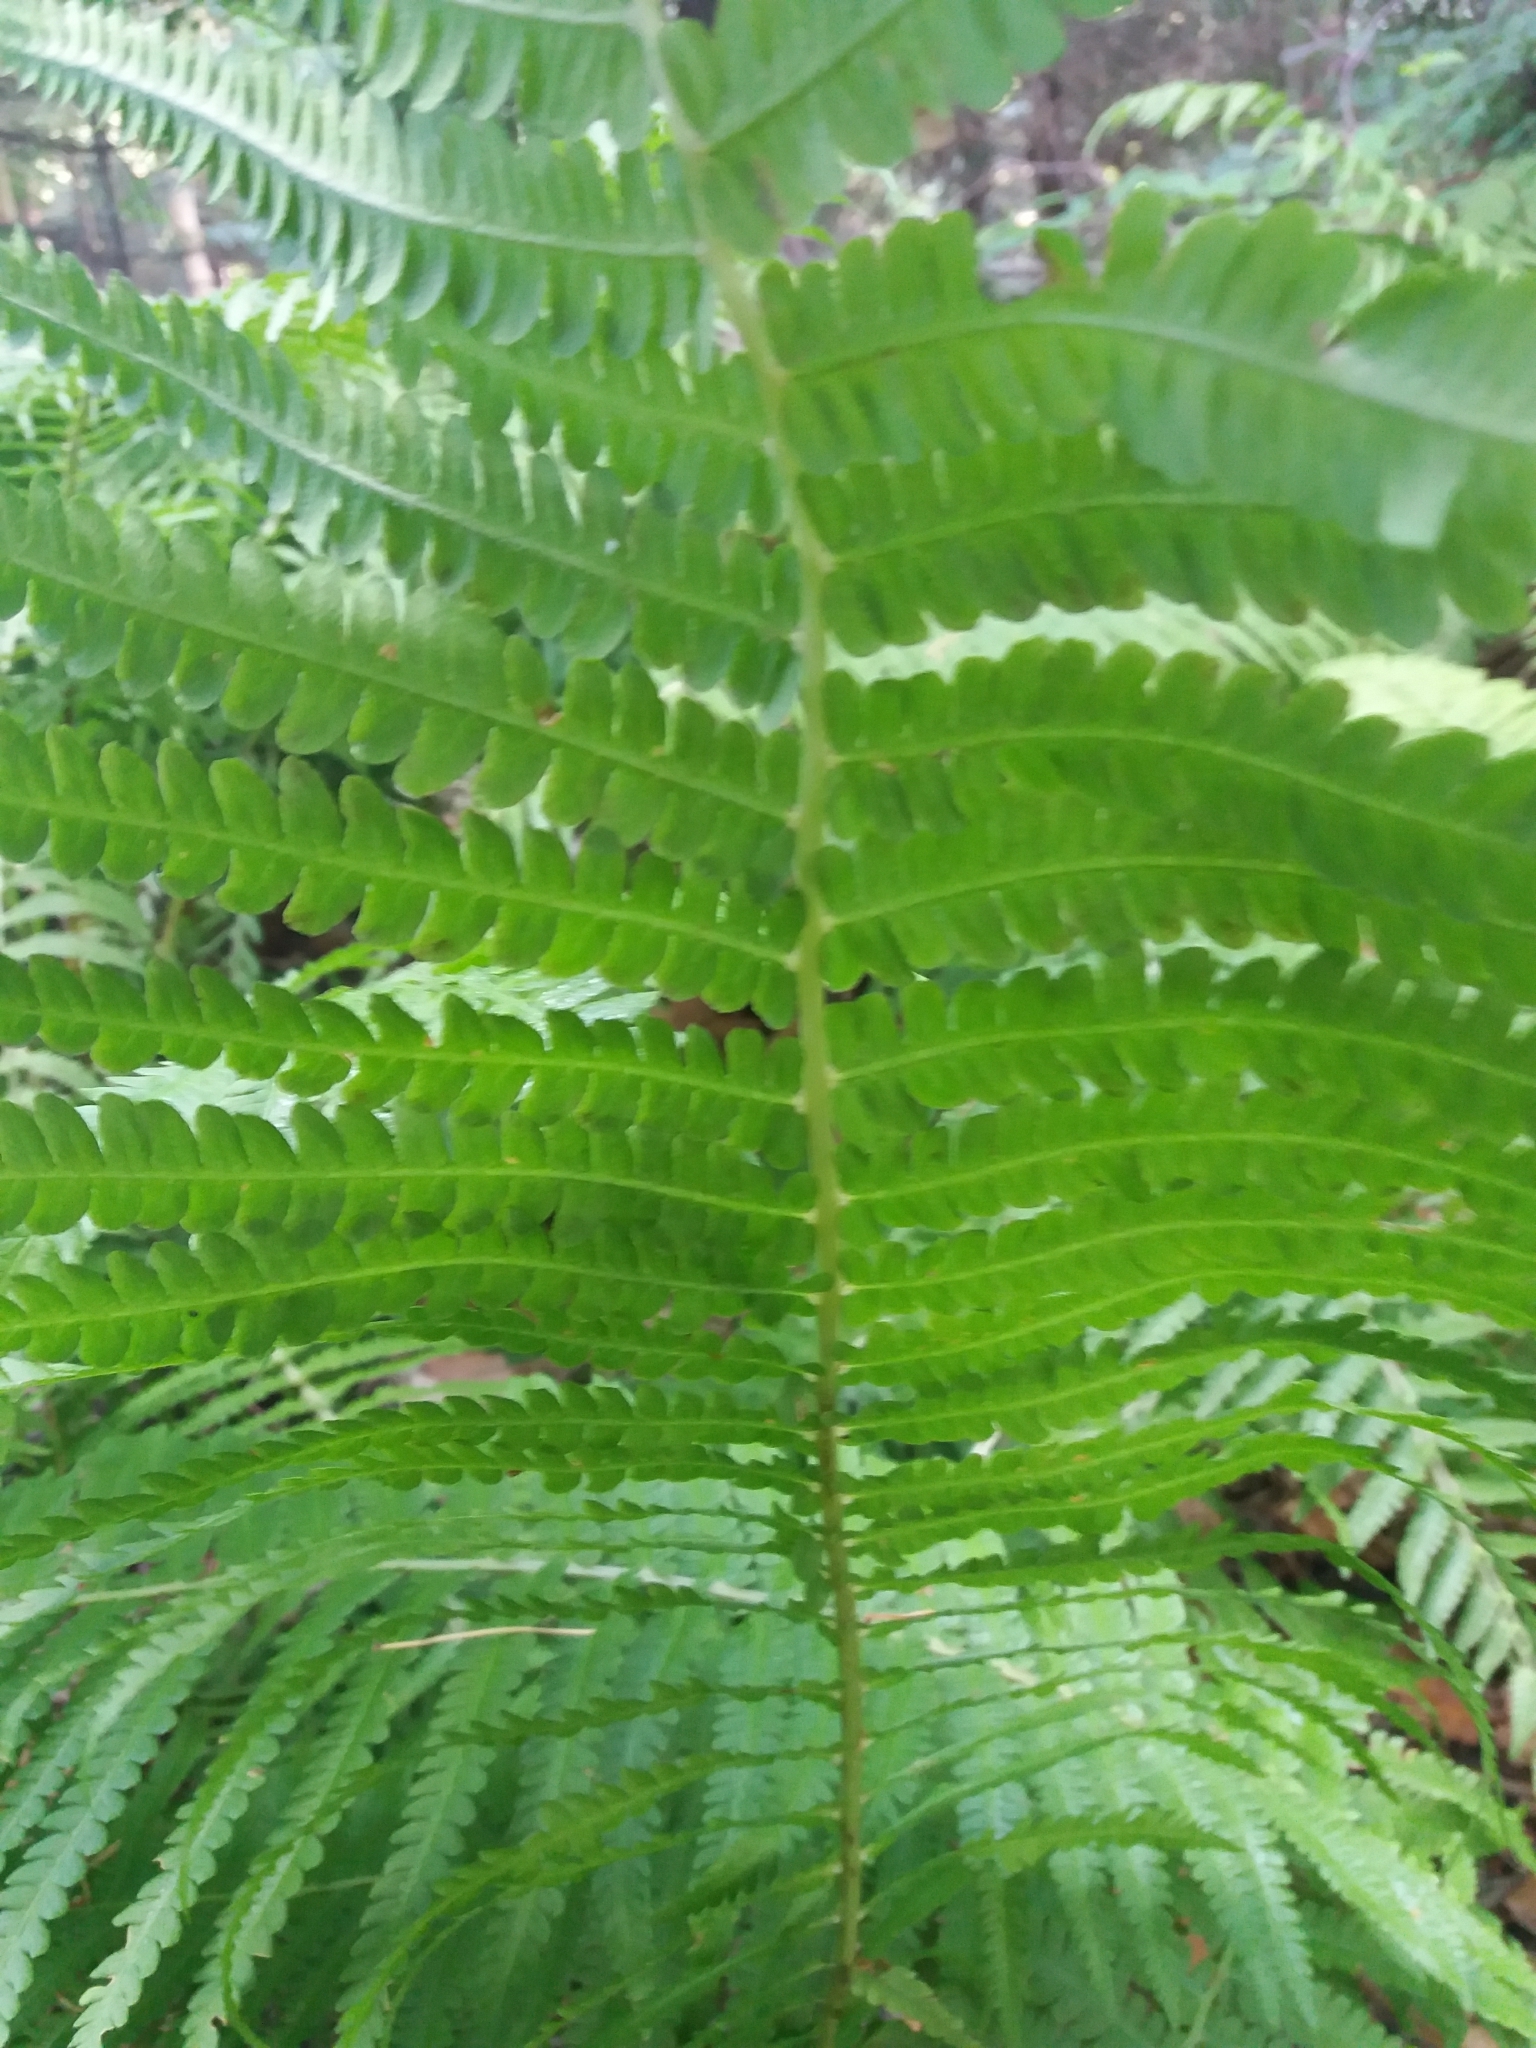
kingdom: Plantae
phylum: Tracheophyta
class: Polypodiopsida
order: Polypodiales
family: Onocleaceae
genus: Matteuccia
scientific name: Matteuccia struthiopteris
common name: Ostrich fern
